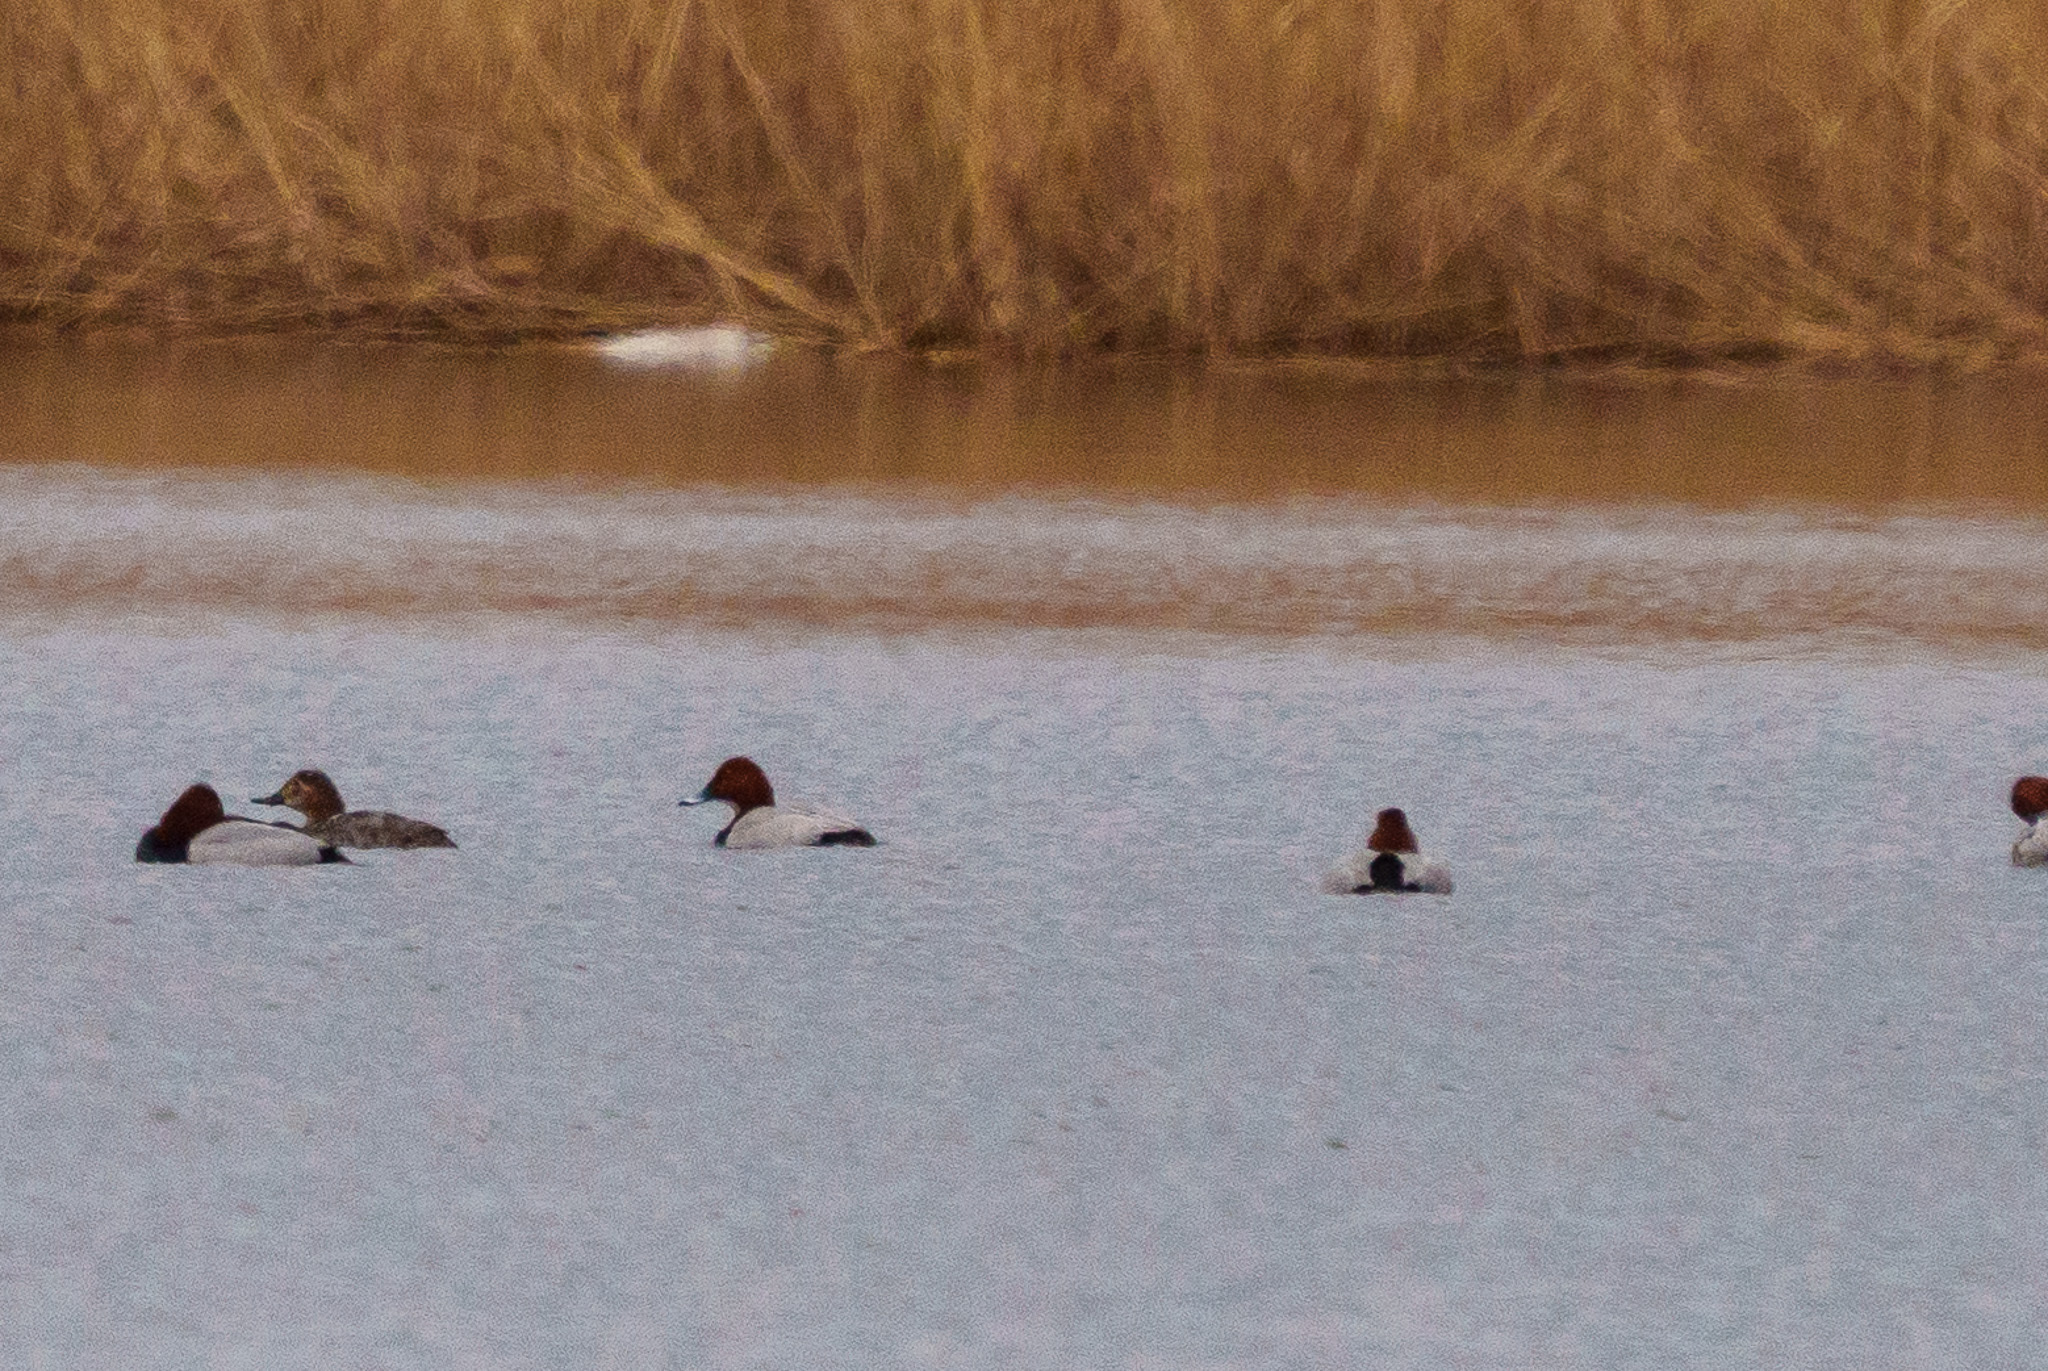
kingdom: Animalia
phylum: Chordata
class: Aves
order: Anseriformes
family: Anatidae
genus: Aythya
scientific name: Aythya ferina
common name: Common pochard
